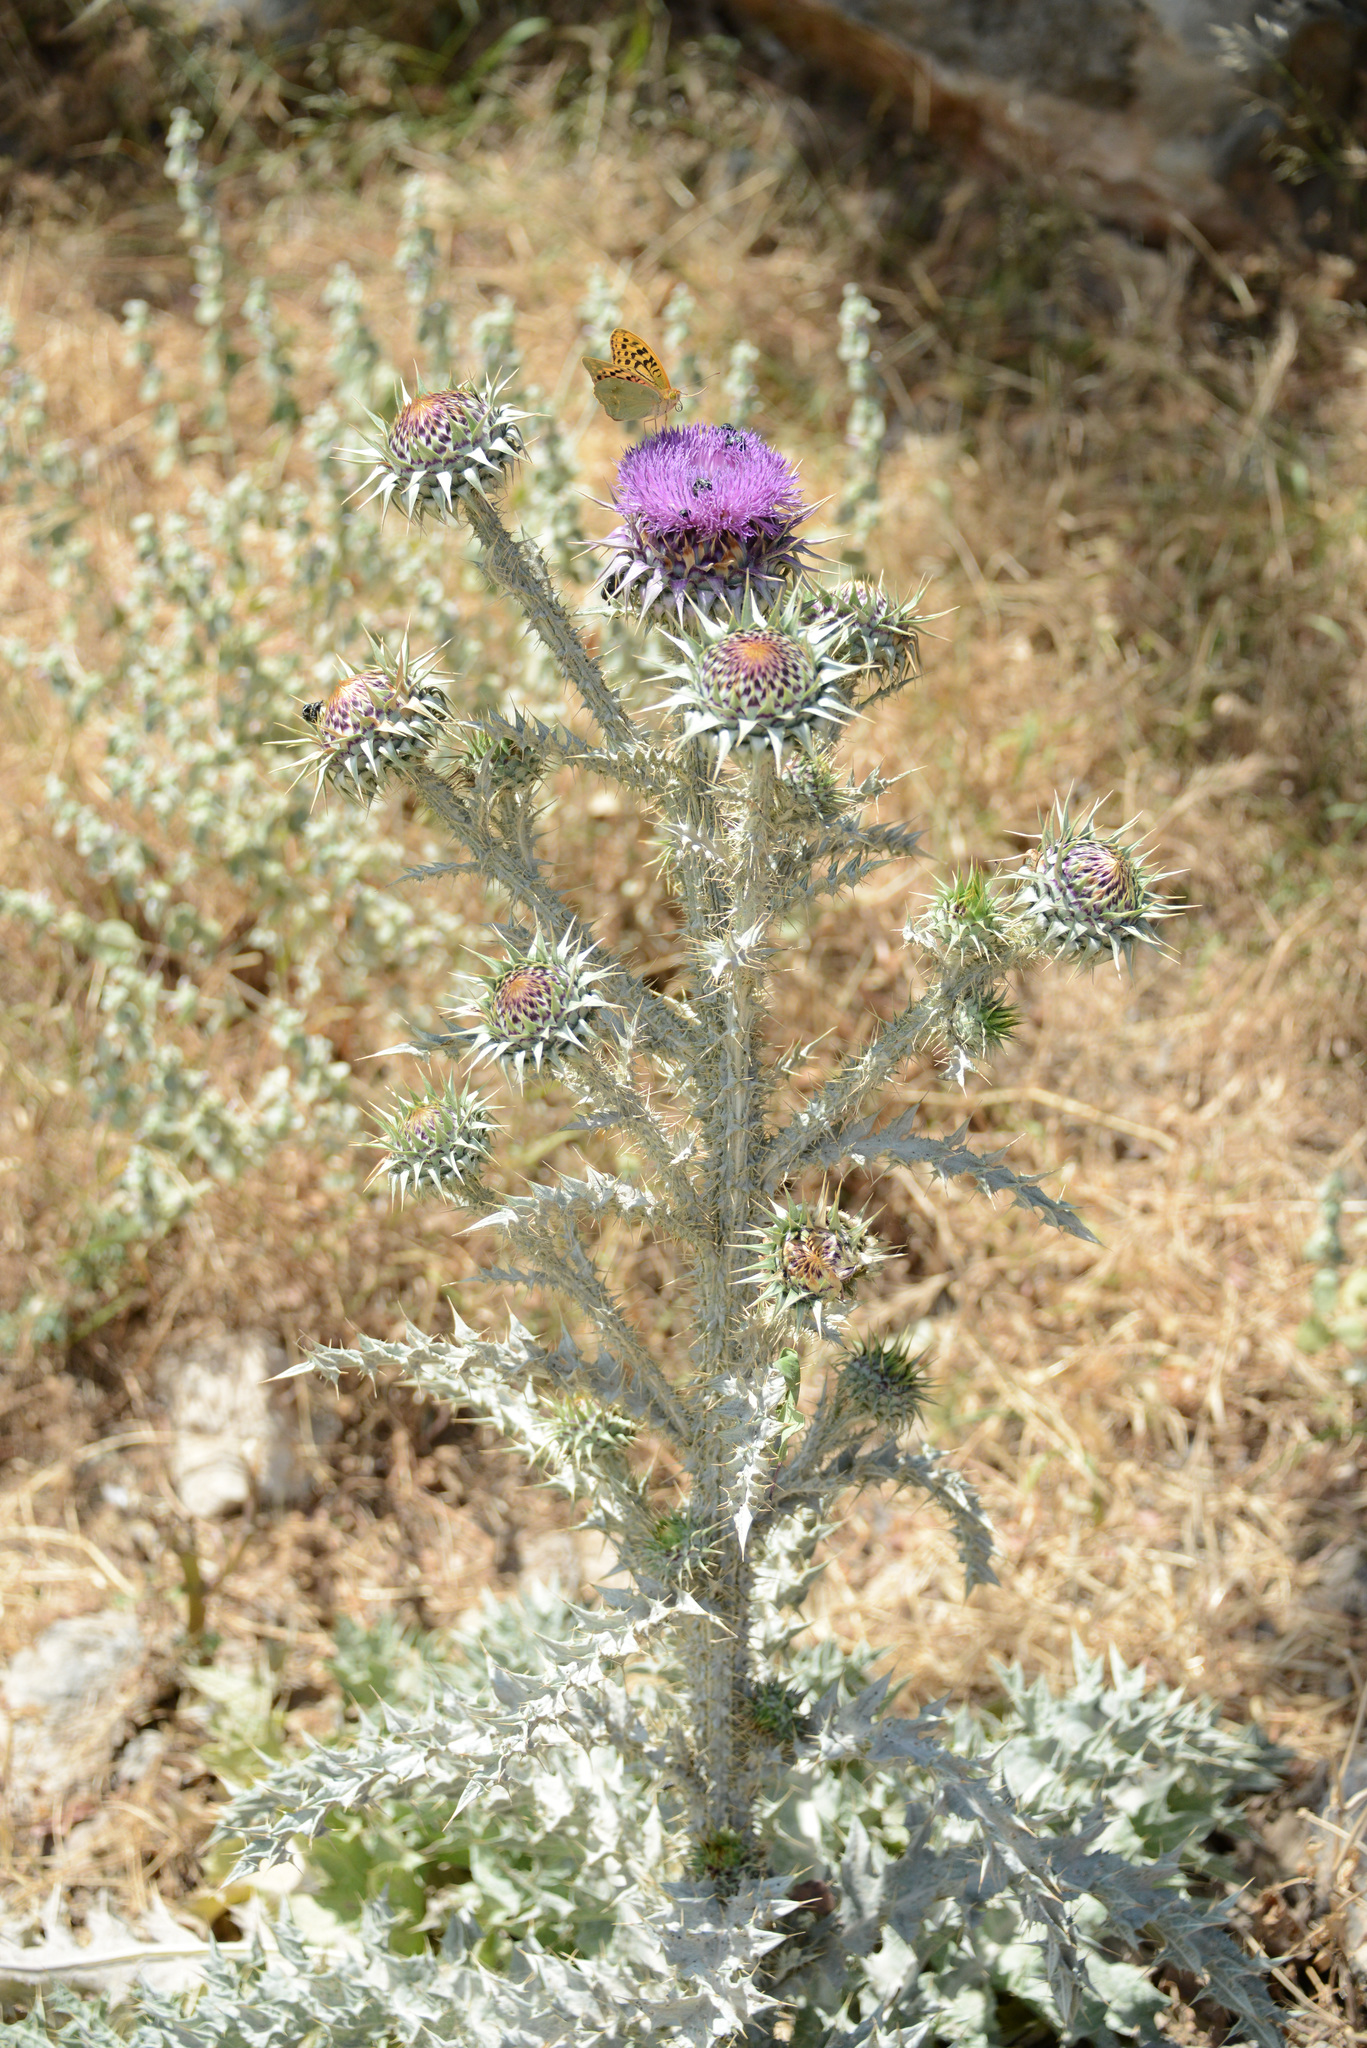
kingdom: Plantae
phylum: Tracheophyta
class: Magnoliopsida
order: Asterales
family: Asteraceae
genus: Onopordum
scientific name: Onopordum bracteatum
